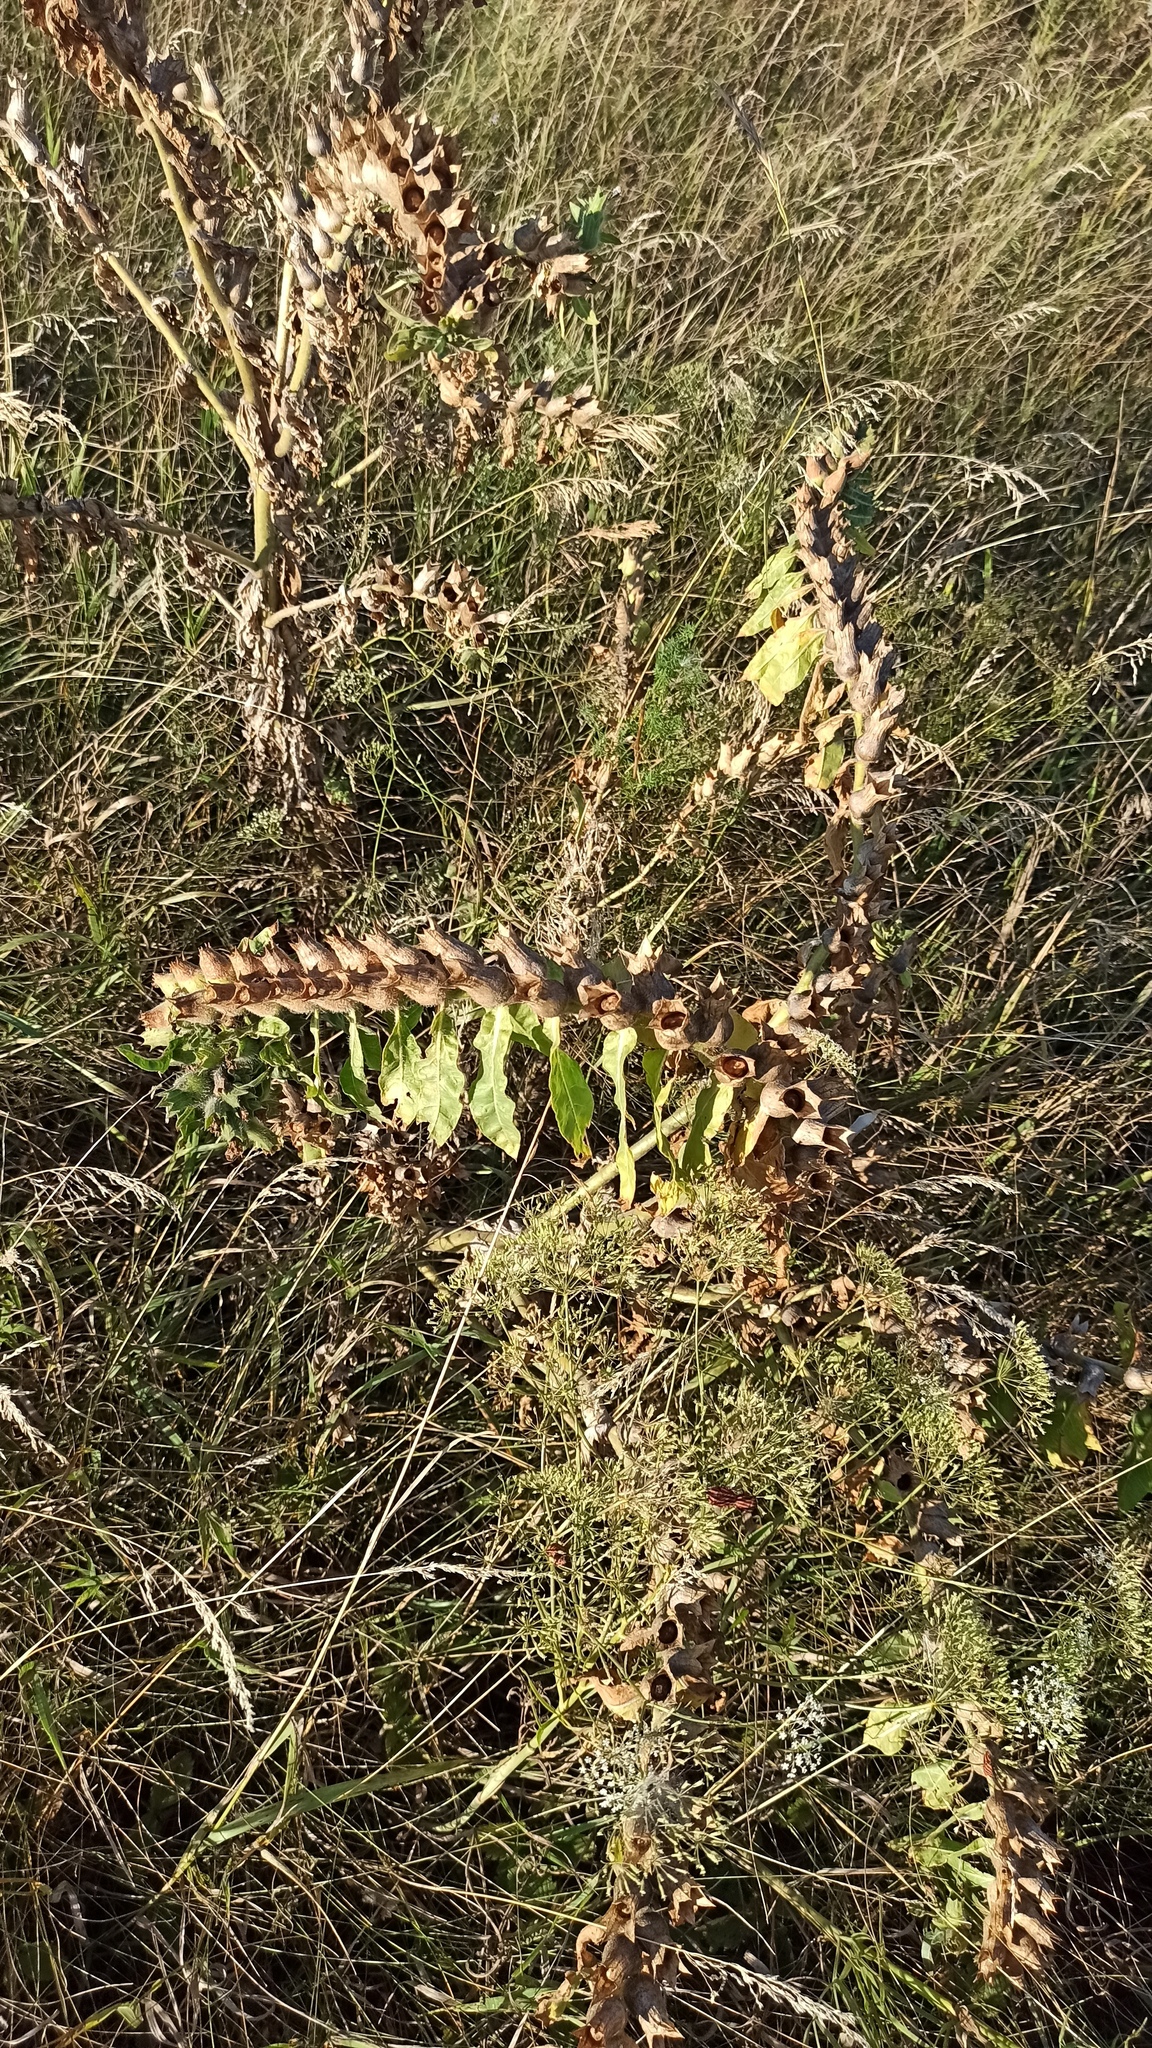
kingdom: Plantae
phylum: Tracheophyta
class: Magnoliopsida
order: Solanales
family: Solanaceae
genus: Hyoscyamus
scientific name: Hyoscyamus niger
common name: Henbane
